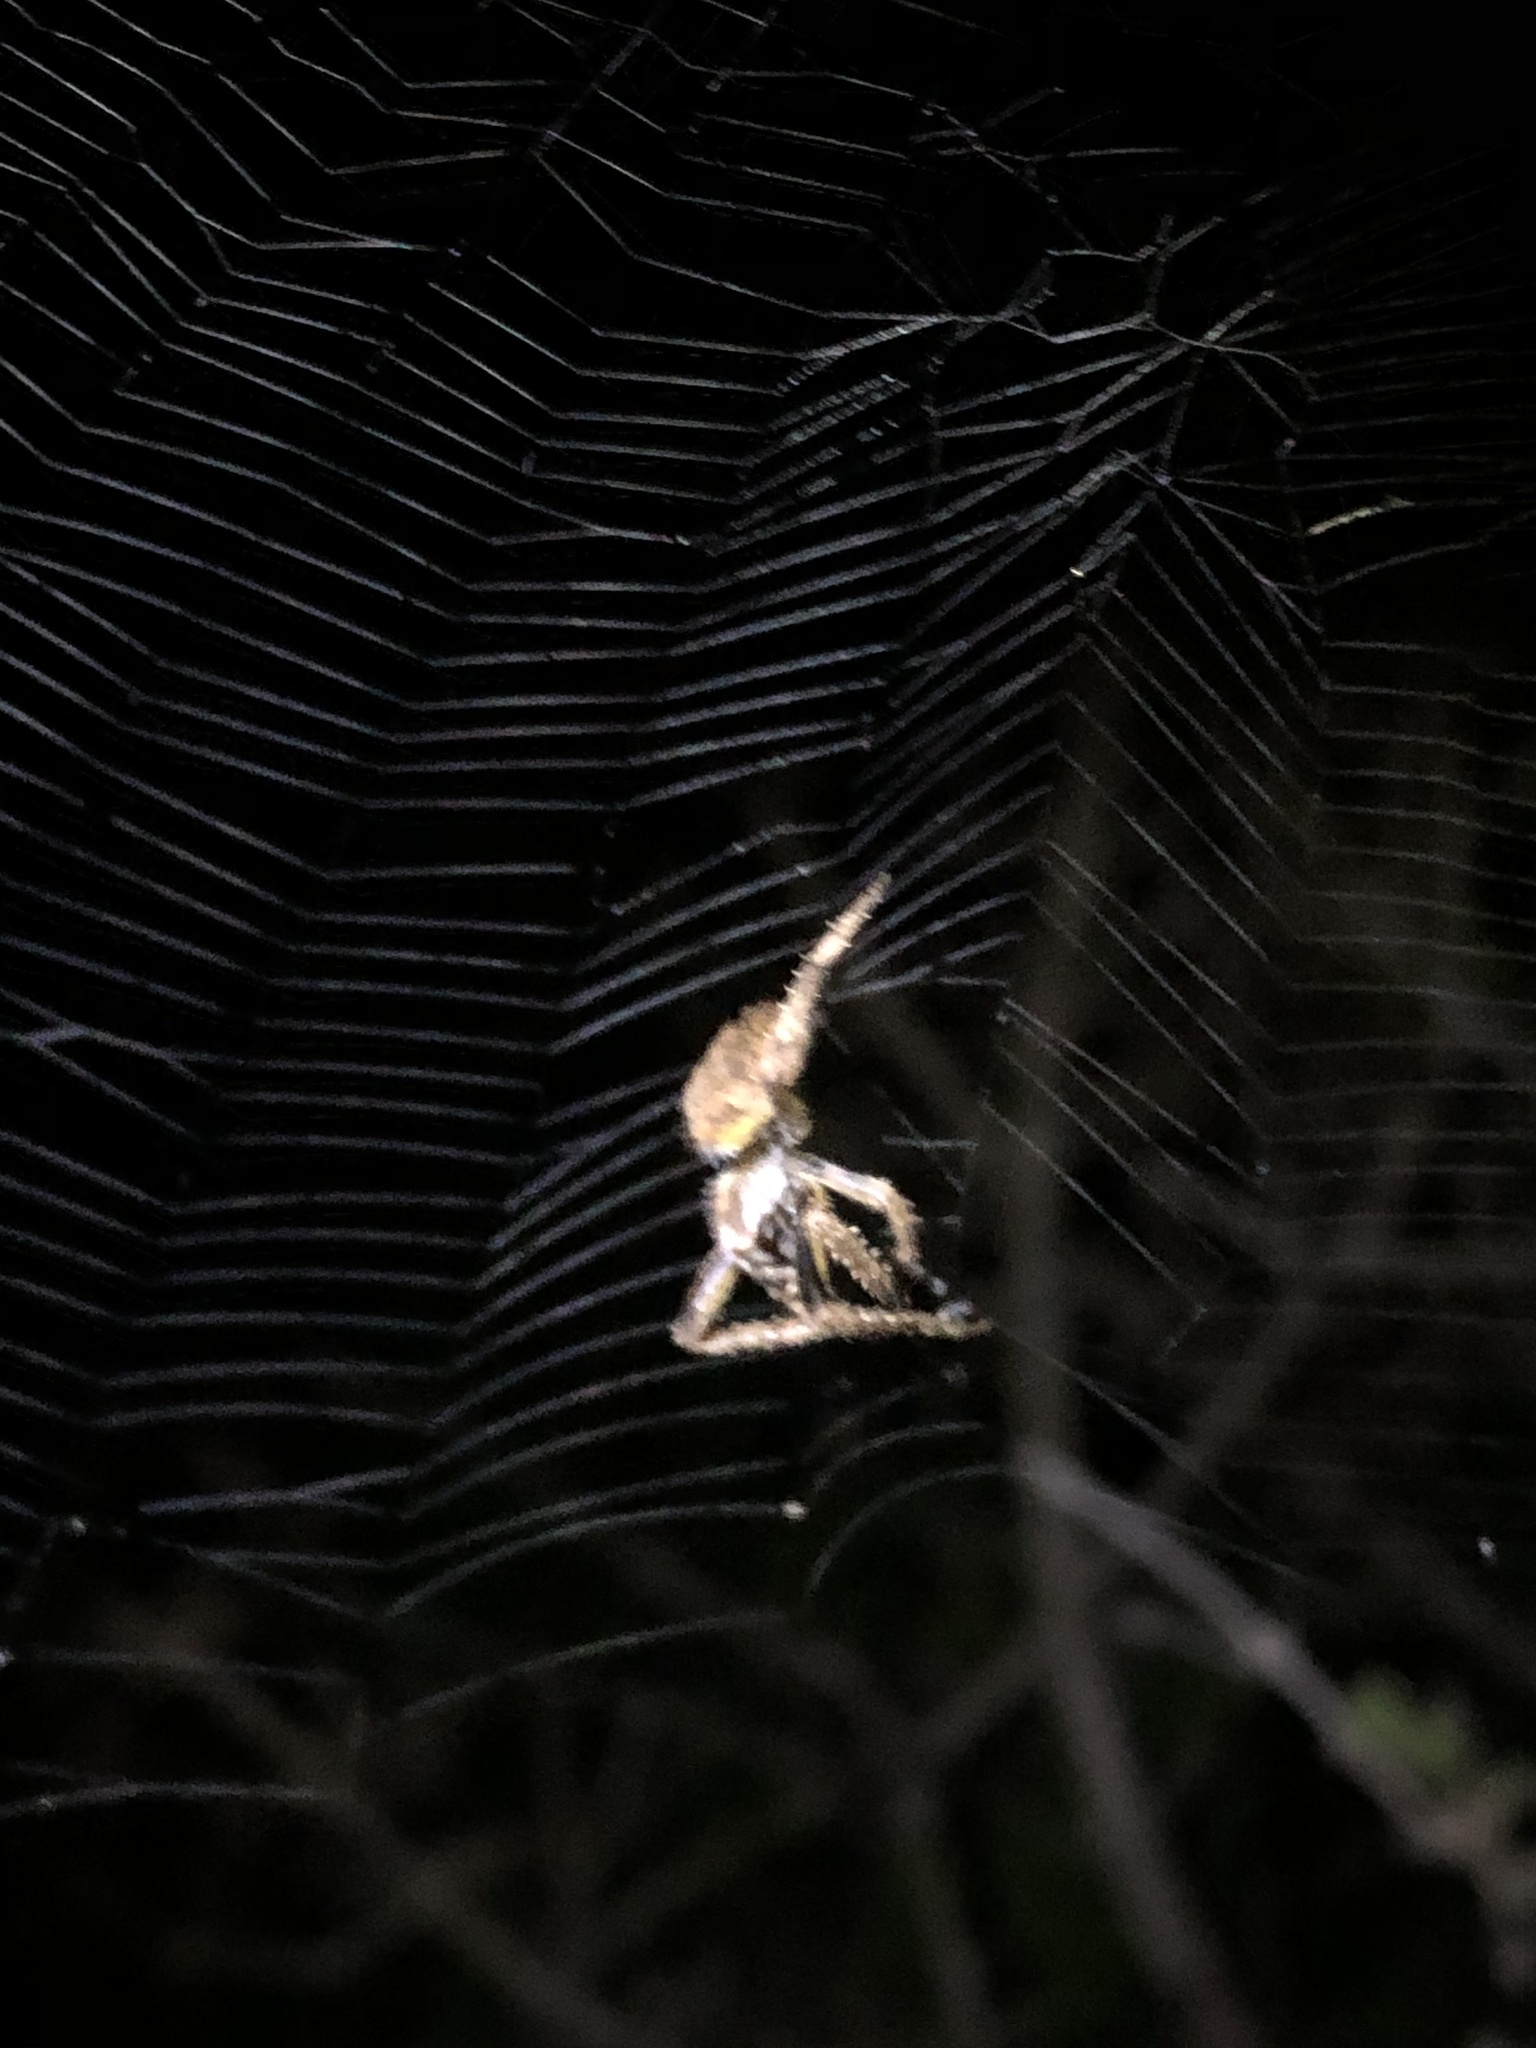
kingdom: Animalia
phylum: Arthropoda
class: Arachnida
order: Araneae
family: Araneidae
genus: Eriophora
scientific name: Eriophora ravilla
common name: Orb weavers
